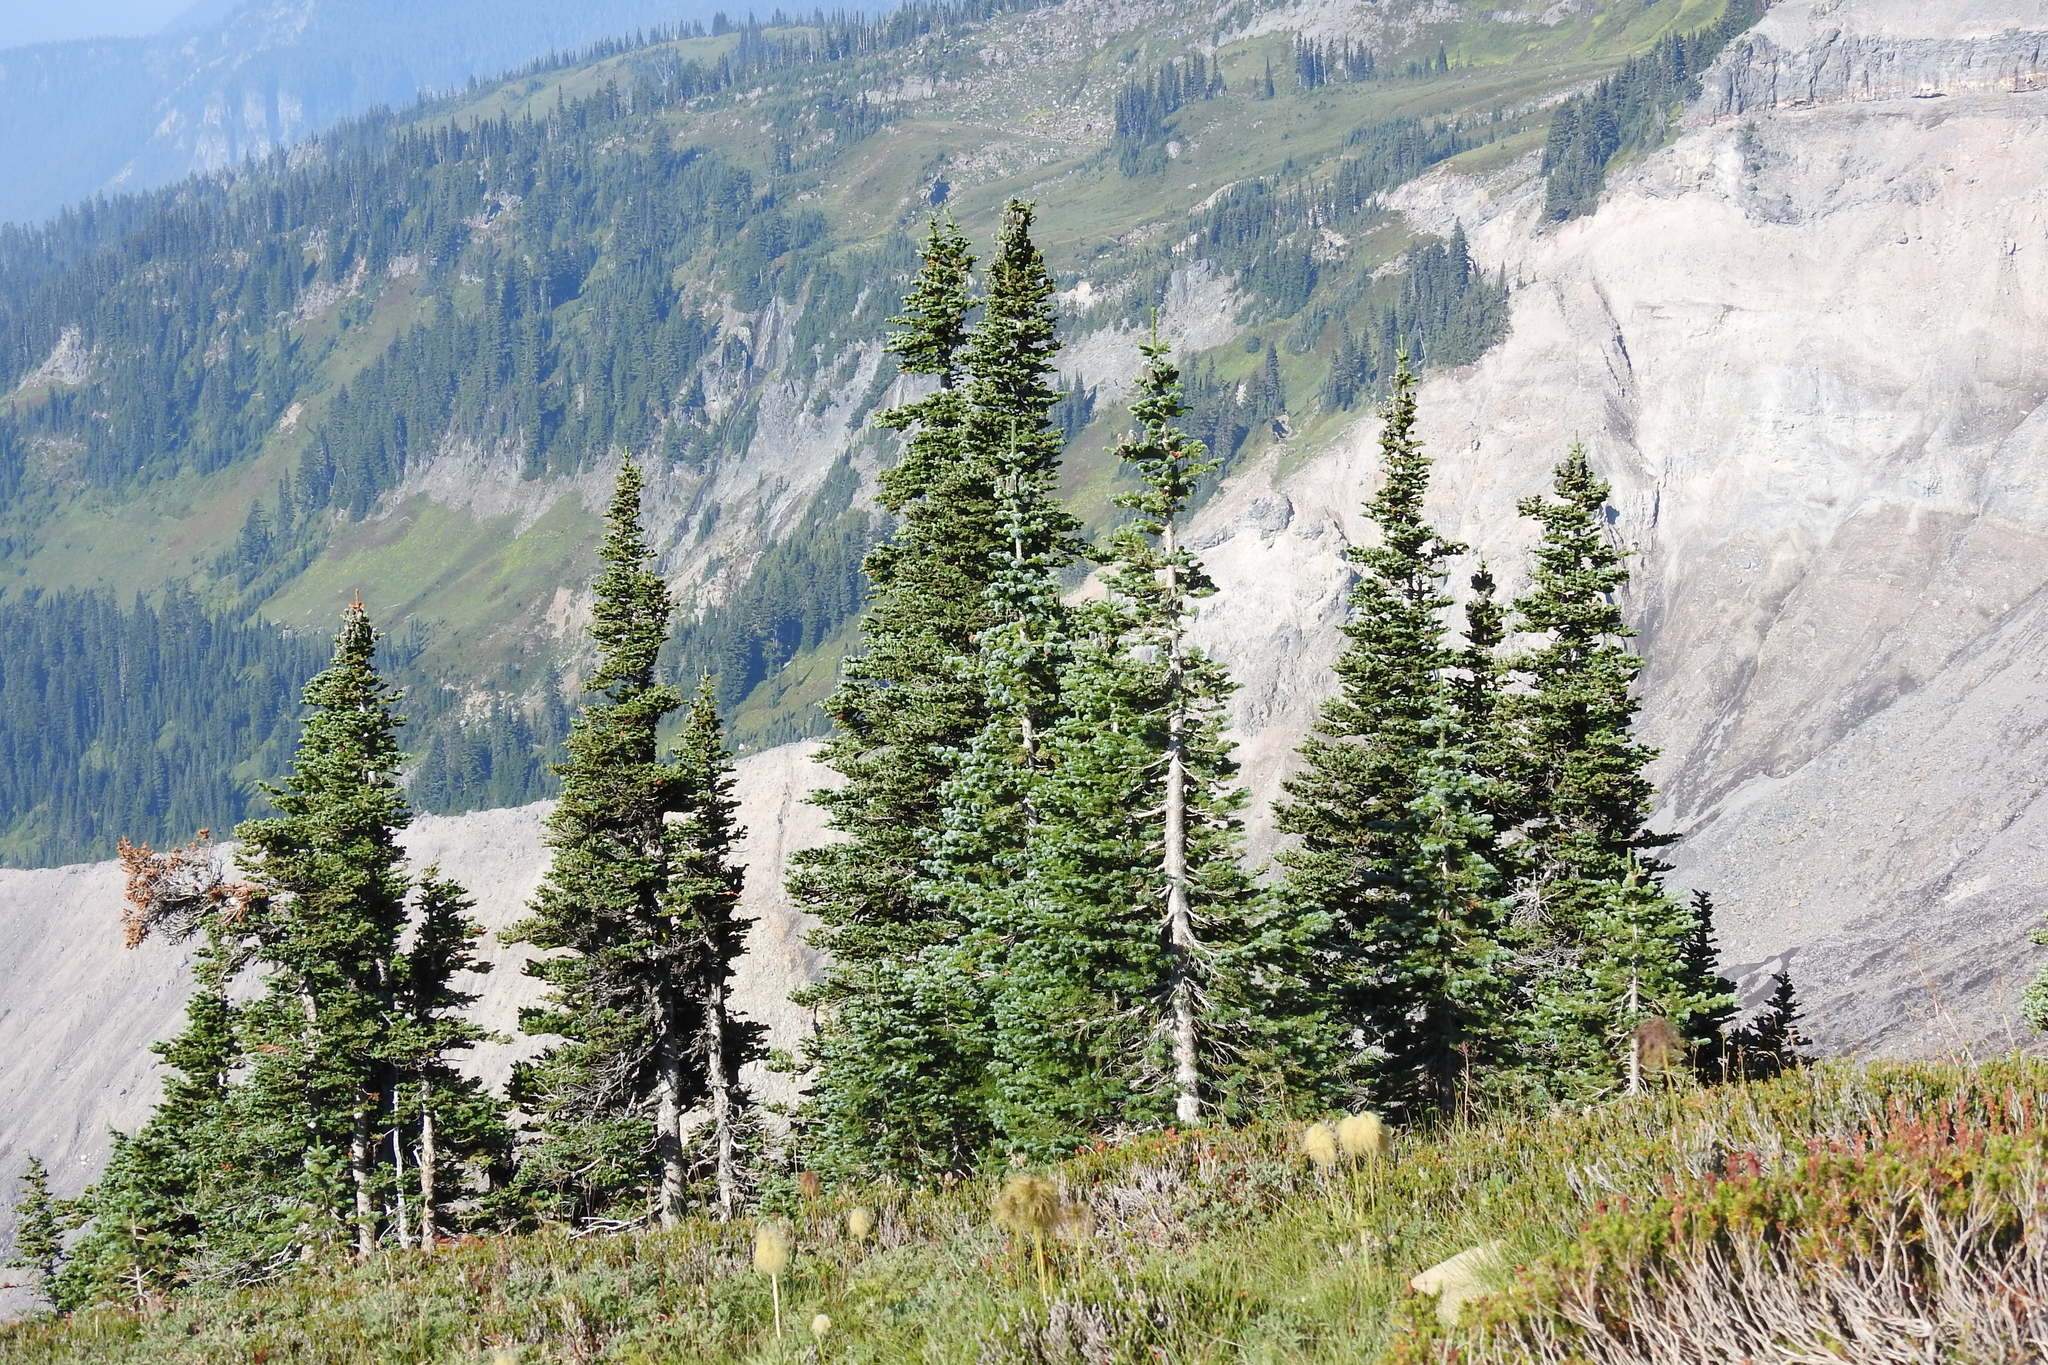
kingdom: Plantae
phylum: Tracheophyta
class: Pinopsida
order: Pinales
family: Pinaceae
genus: Abies
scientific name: Abies lasiocarpa
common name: Subalpine fir
